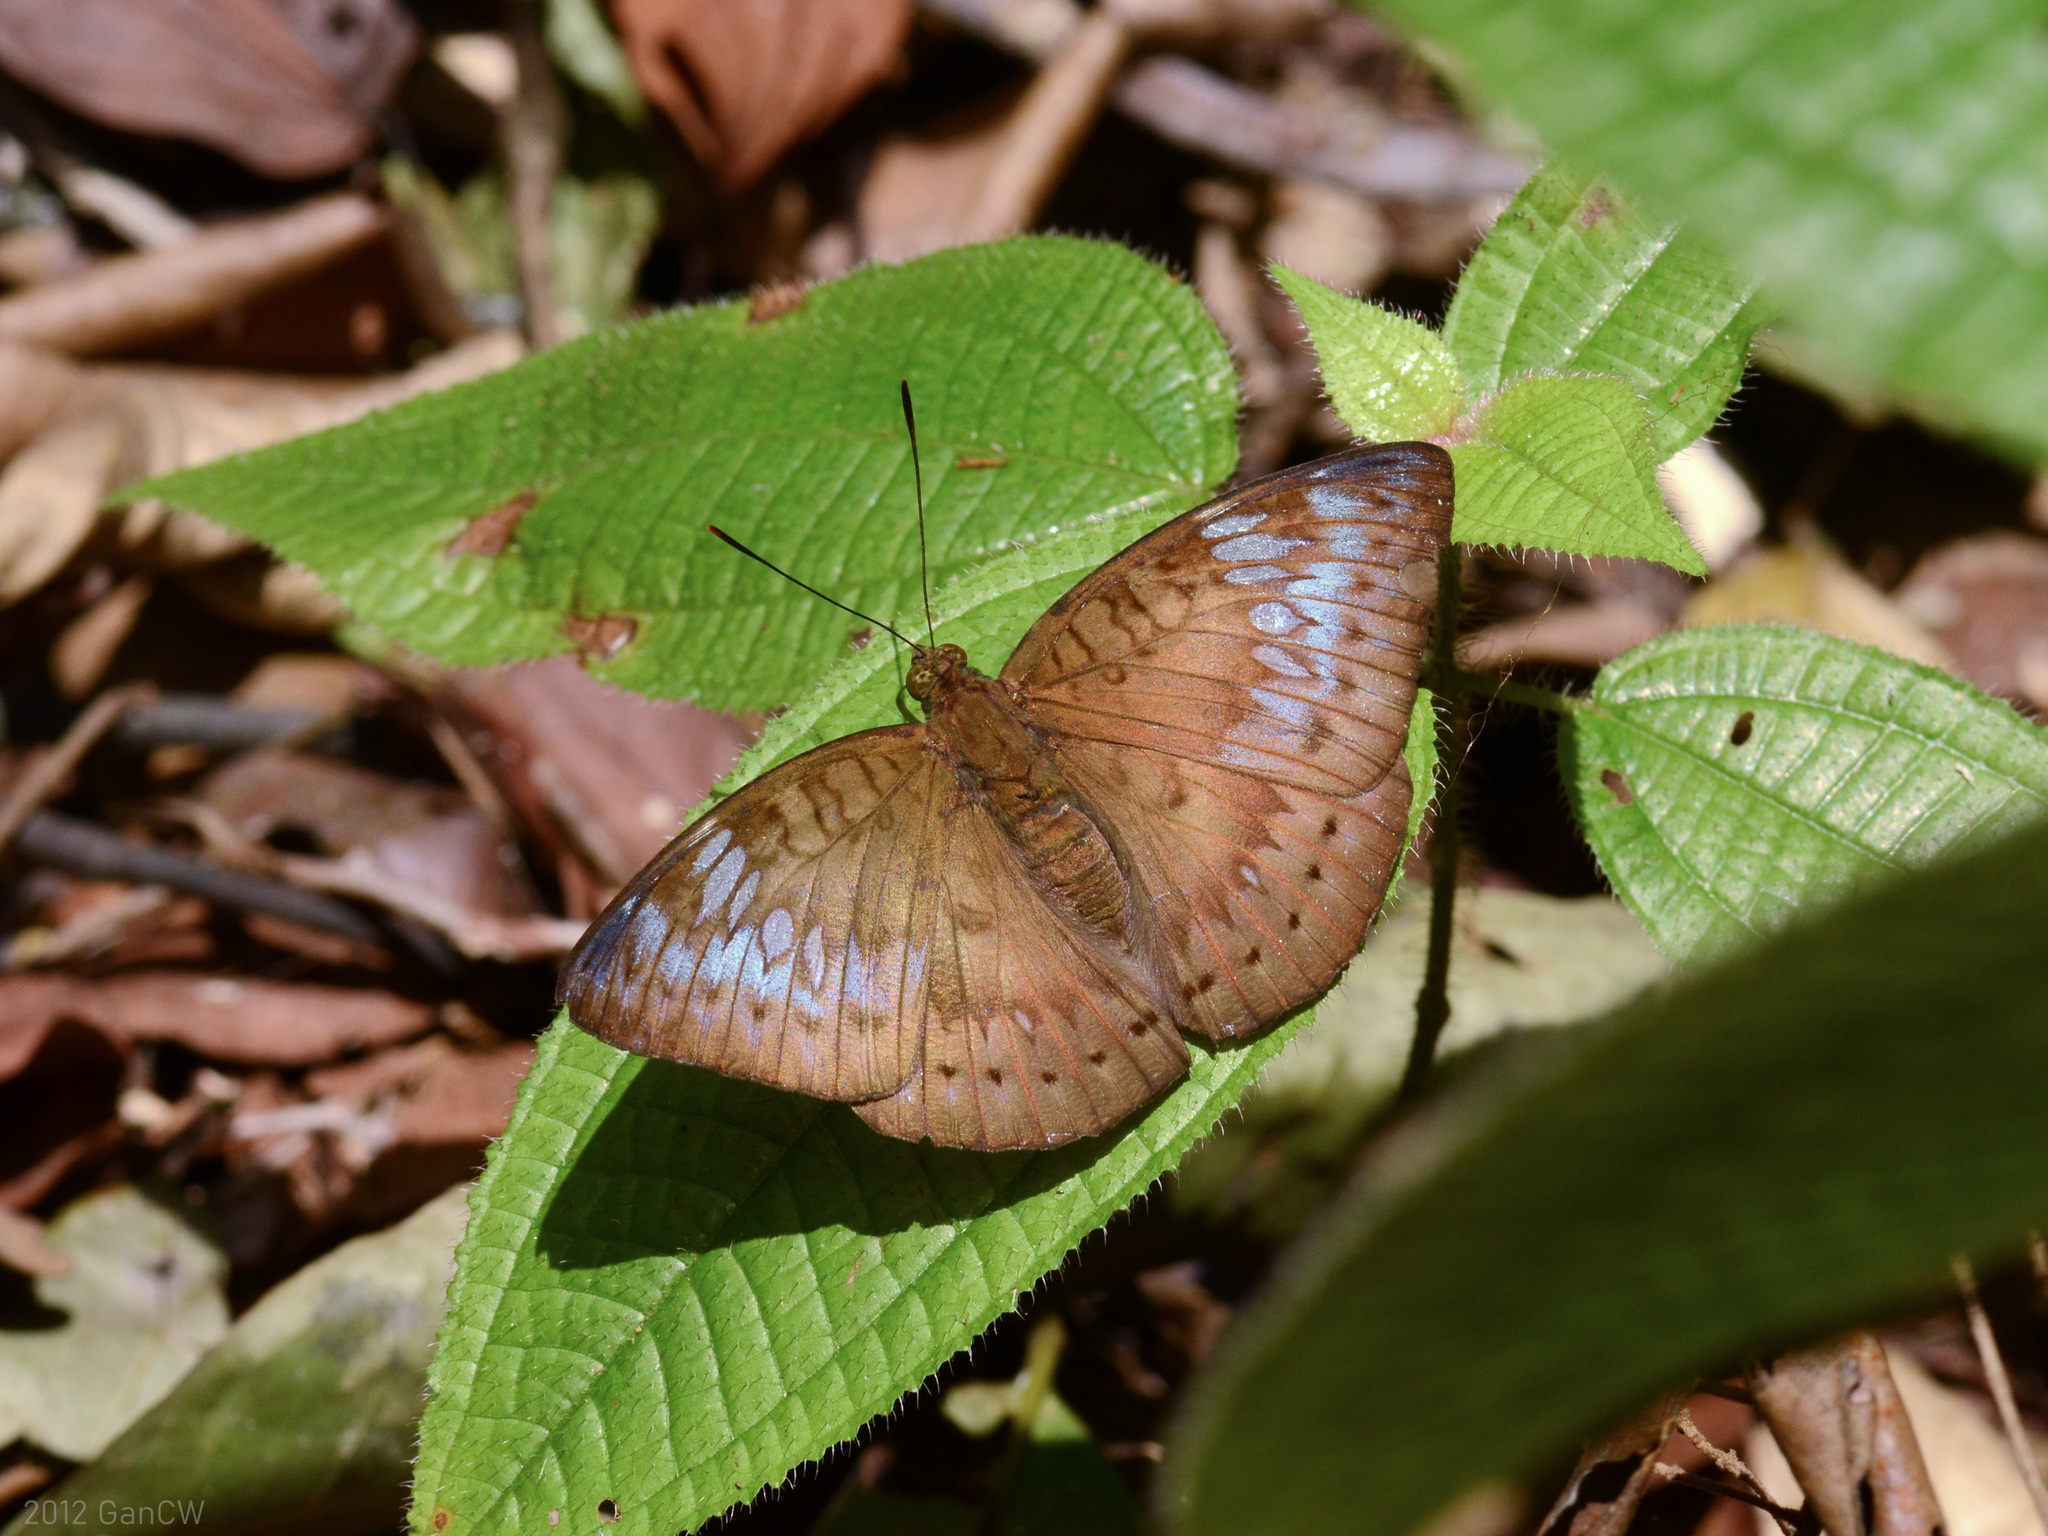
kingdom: Animalia
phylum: Arthropoda
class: Insecta
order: Lepidoptera
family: Nymphalidae
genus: Euthalia
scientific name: Euthalia merta
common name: White tipped baron
